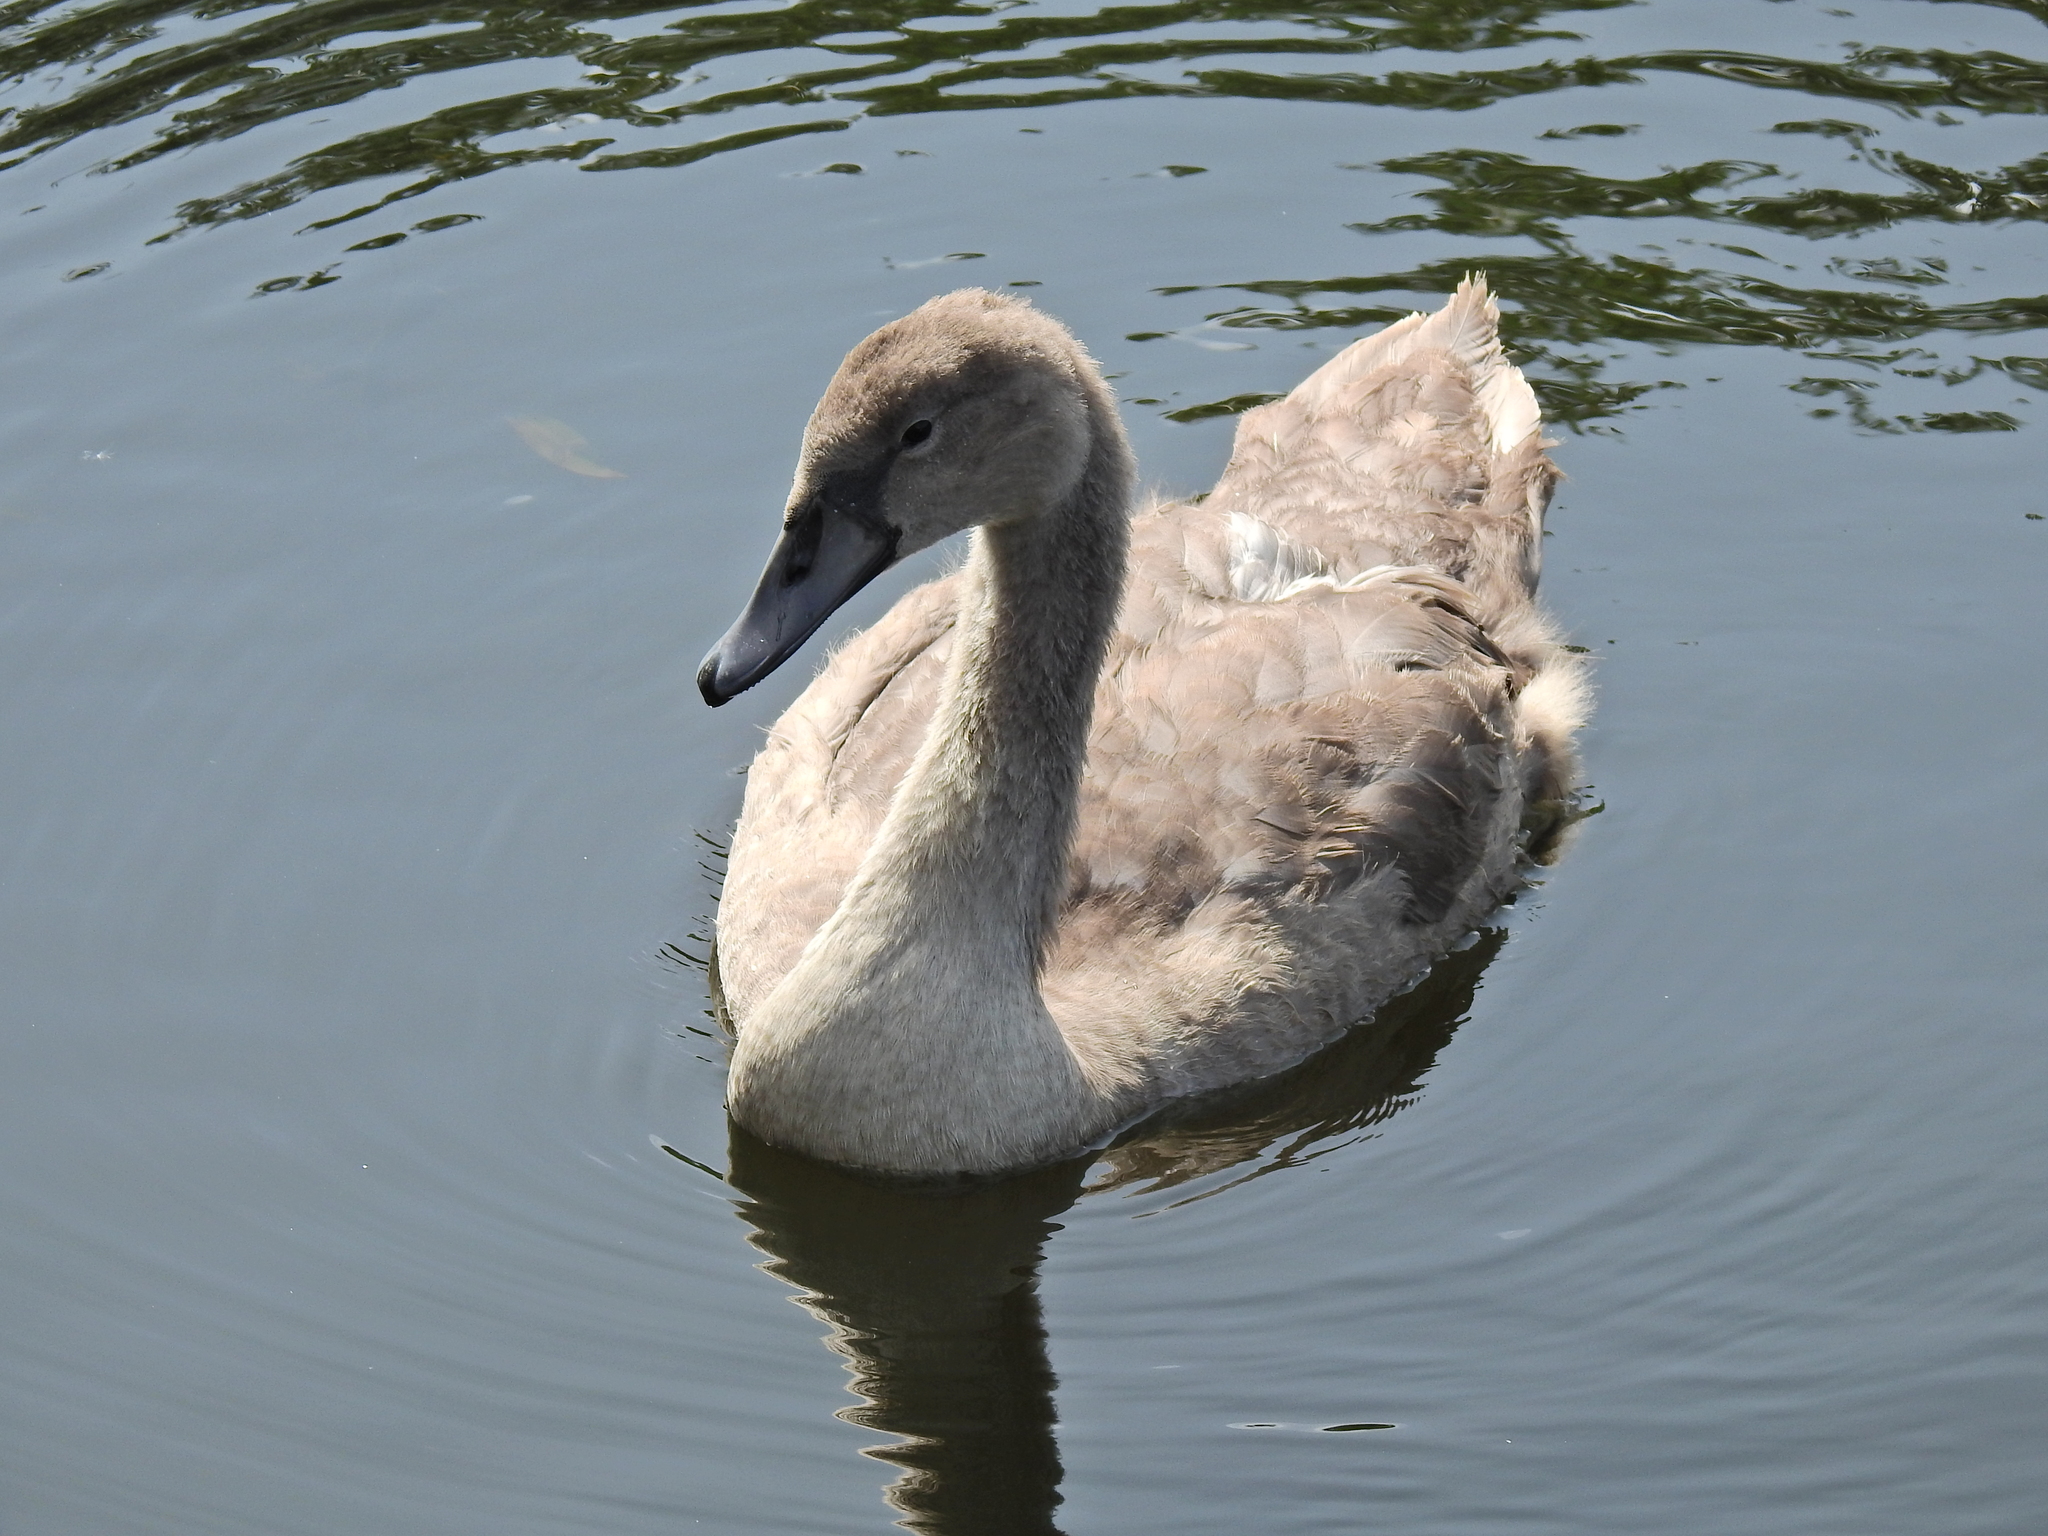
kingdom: Animalia
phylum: Chordata
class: Aves
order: Anseriformes
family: Anatidae
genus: Cygnus
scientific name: Cygnus olor
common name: Mute swan
